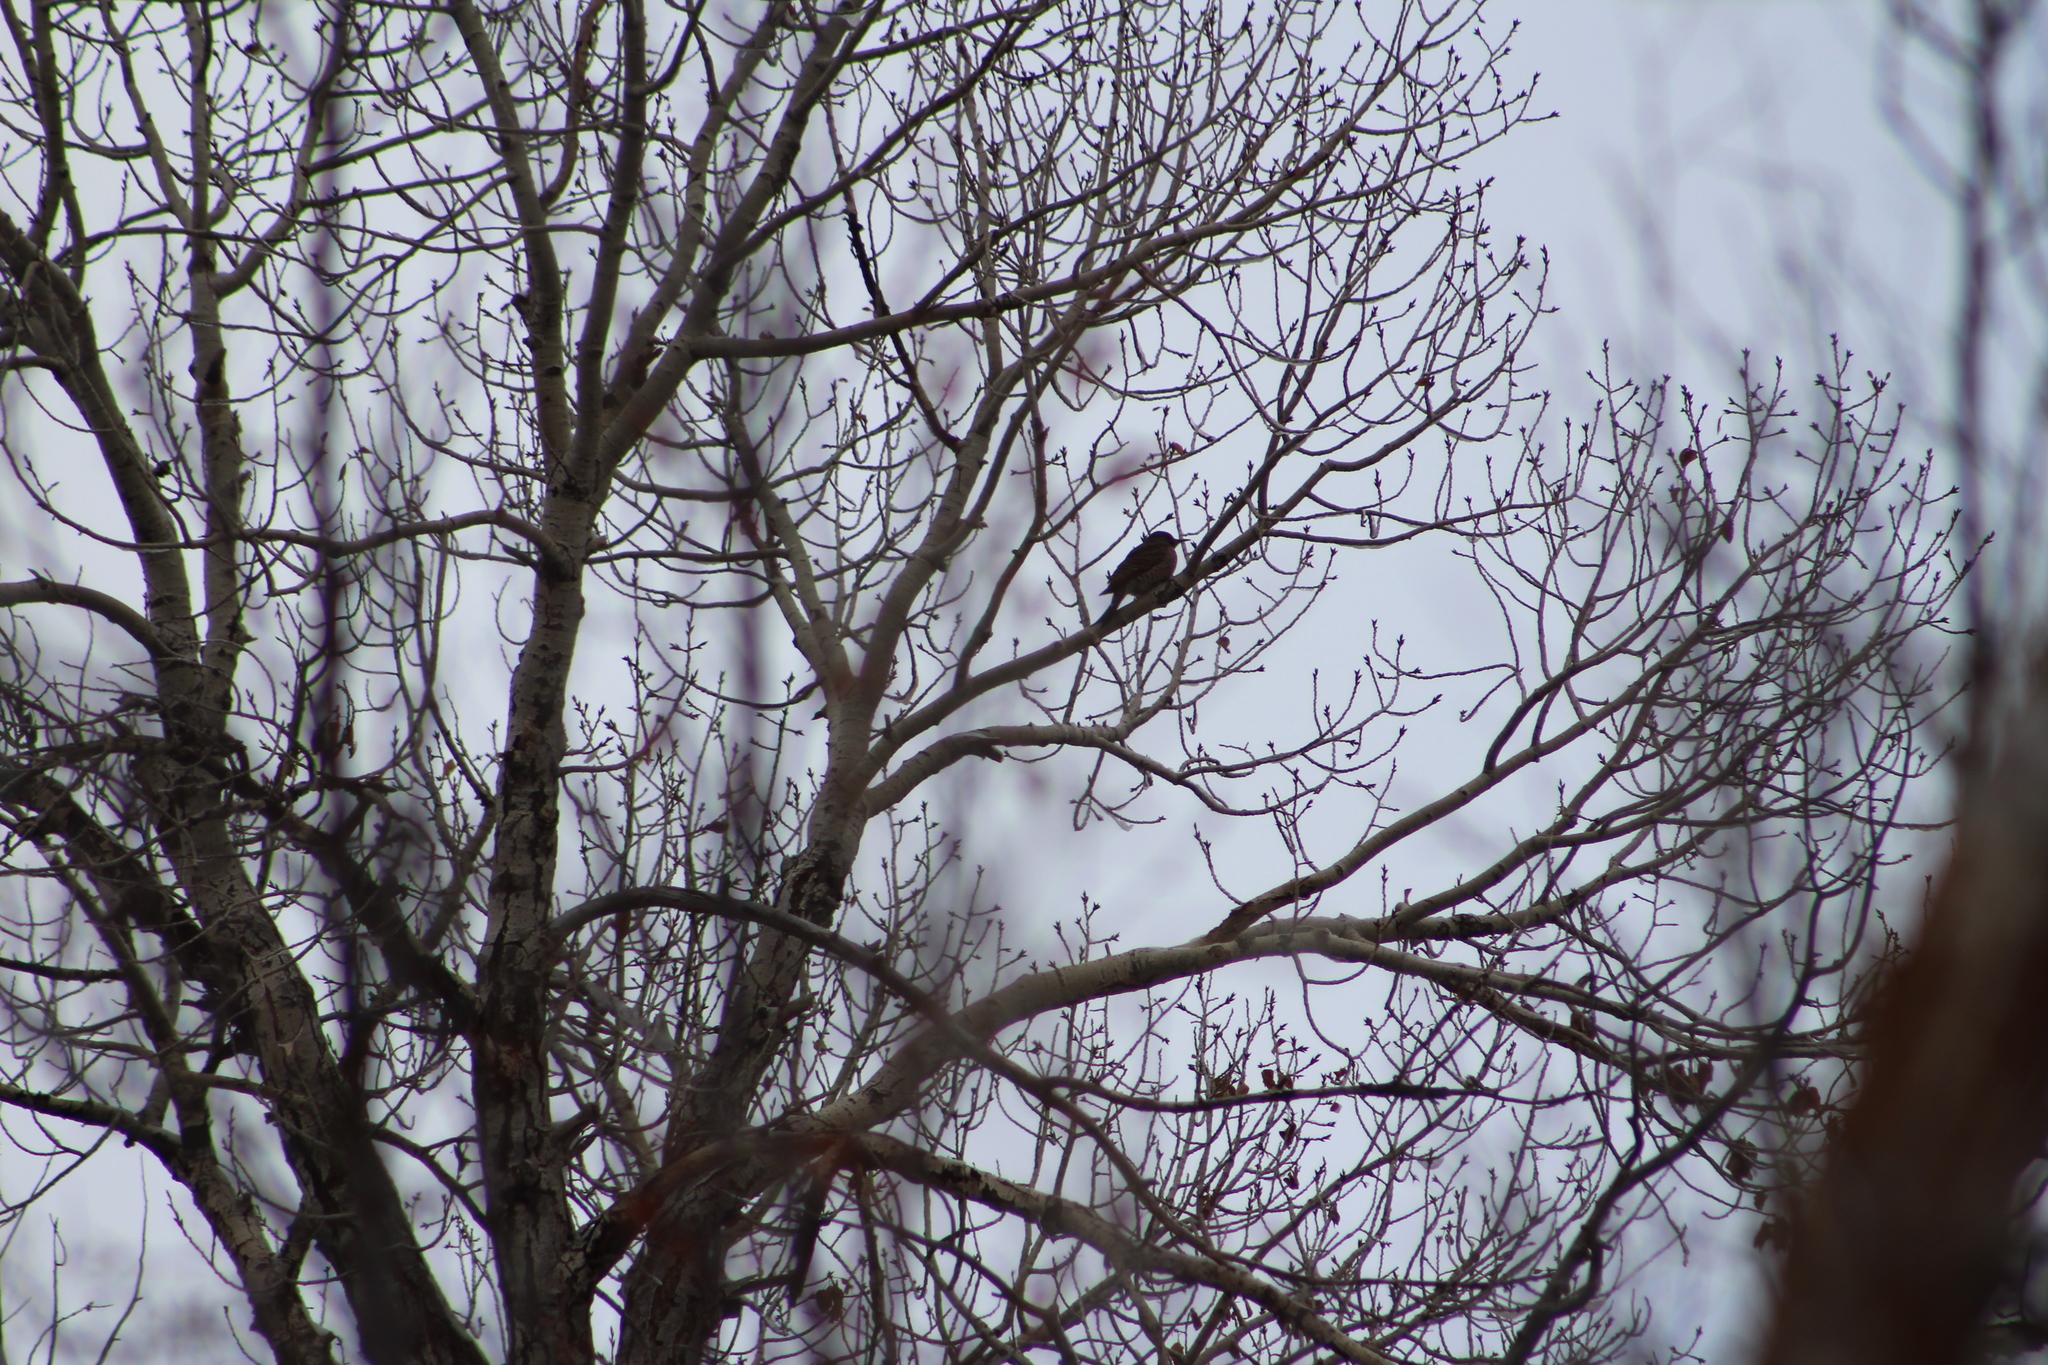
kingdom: Animalia
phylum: Chordata
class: Aves
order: Piciformes
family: Picidae
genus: Colaptes
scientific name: Colaptes auratus
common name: Northern flicker
